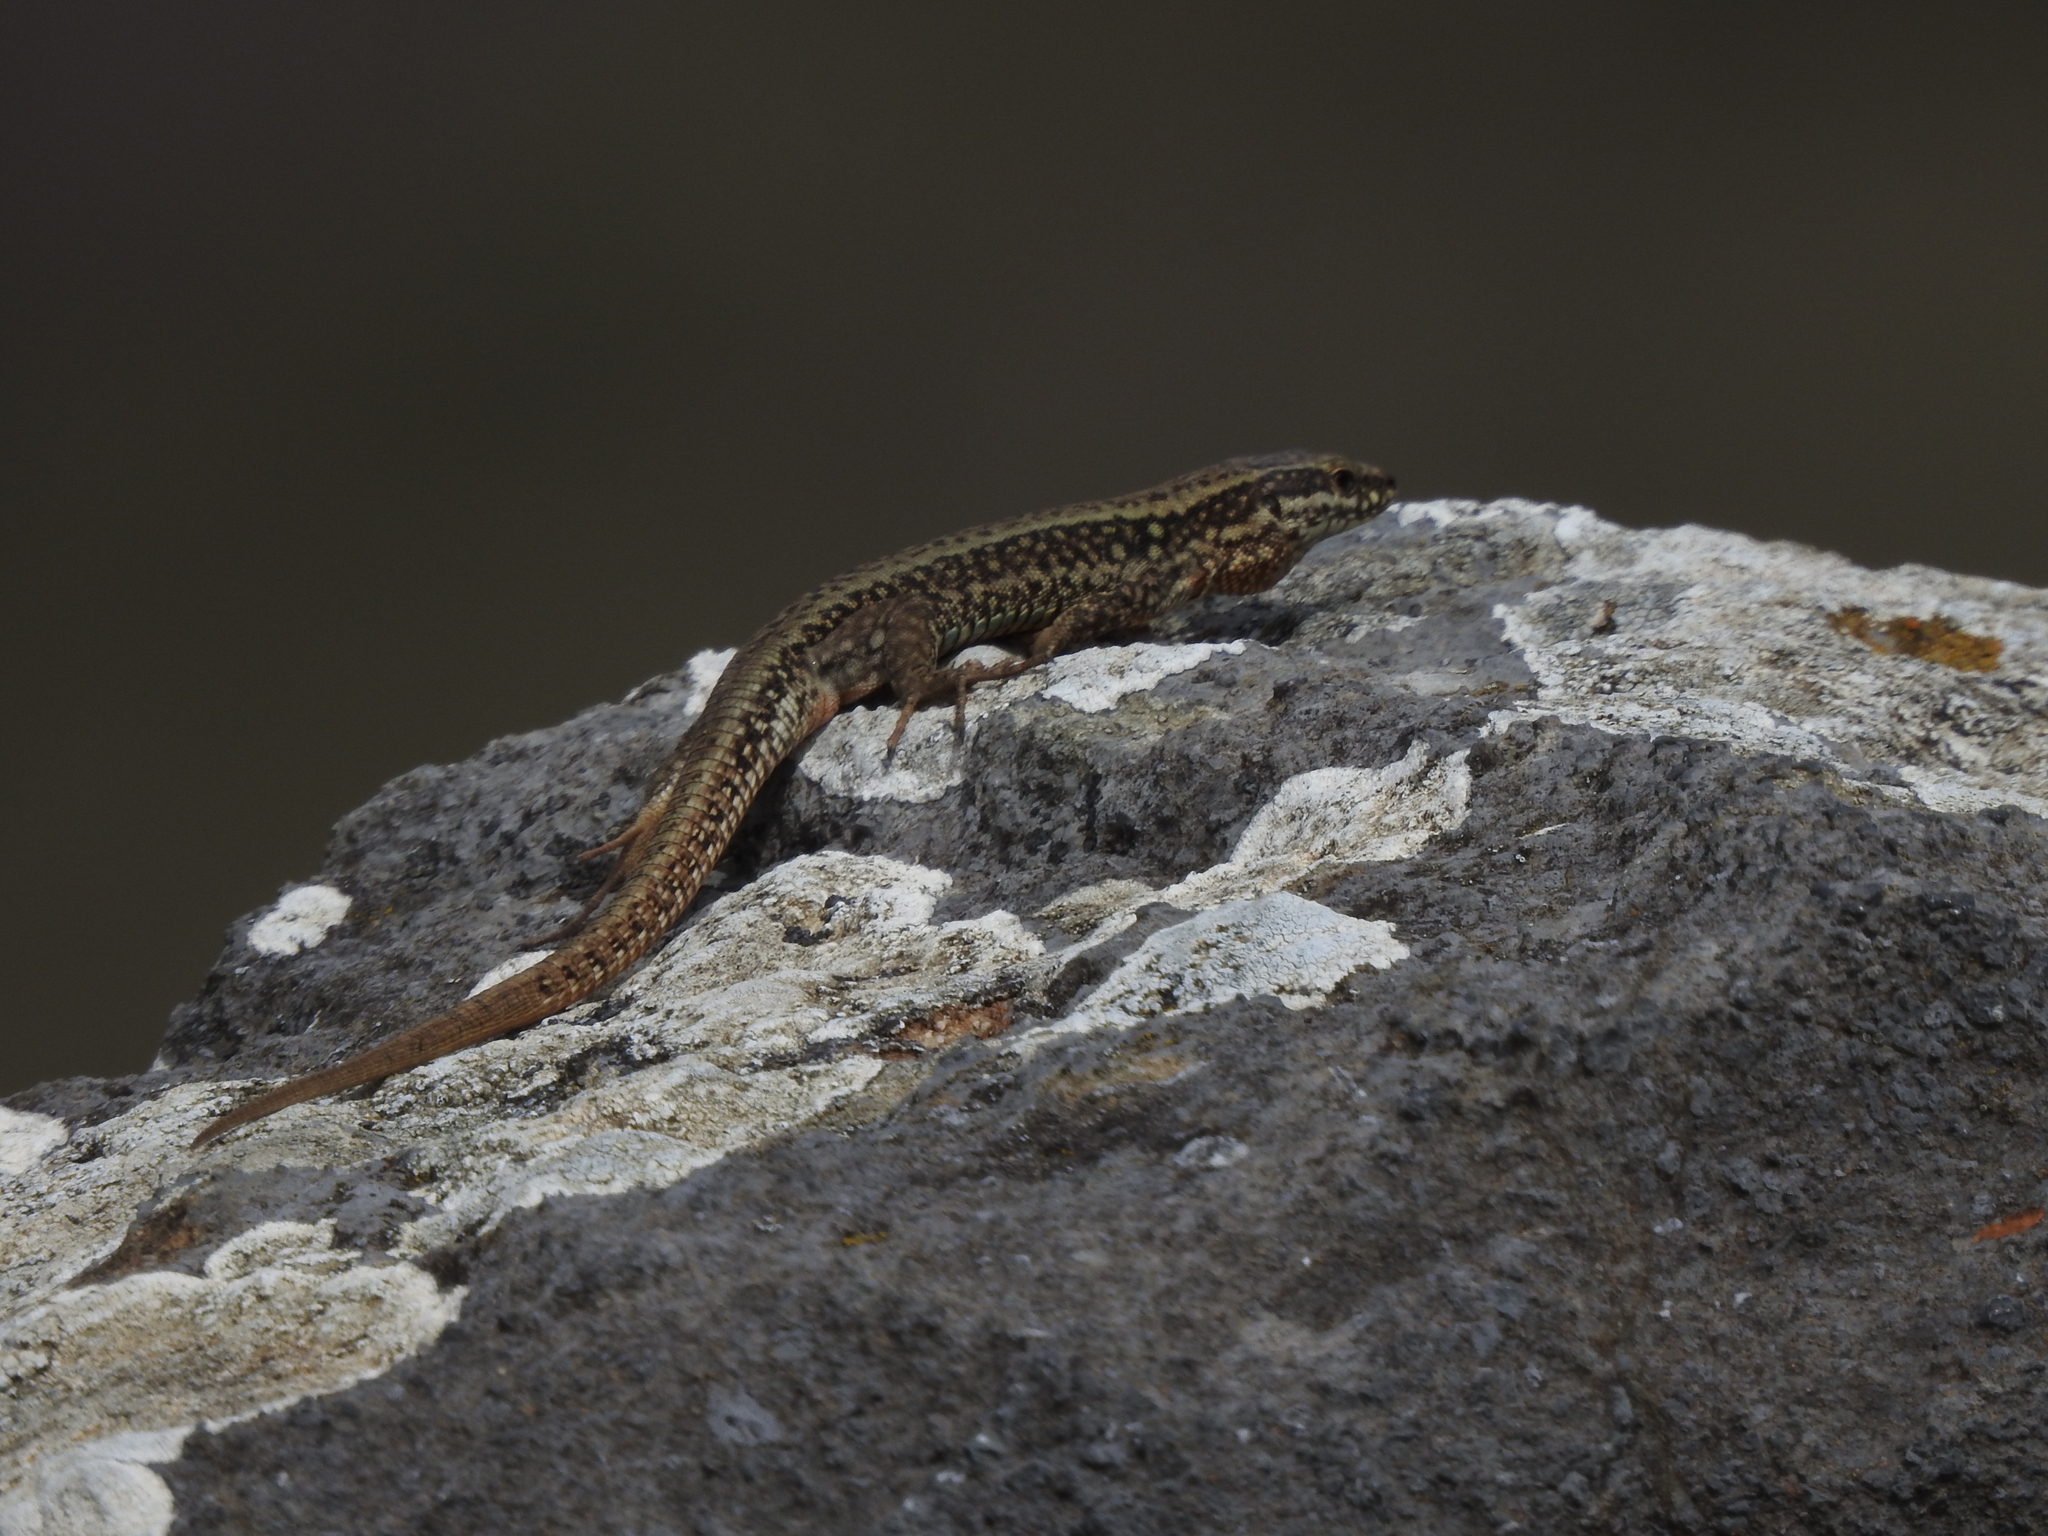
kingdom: Animalia
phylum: Chordata
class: Squamata
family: Lacertidae
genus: Podarcis
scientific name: Podarcis muralis
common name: Common wall lizard
